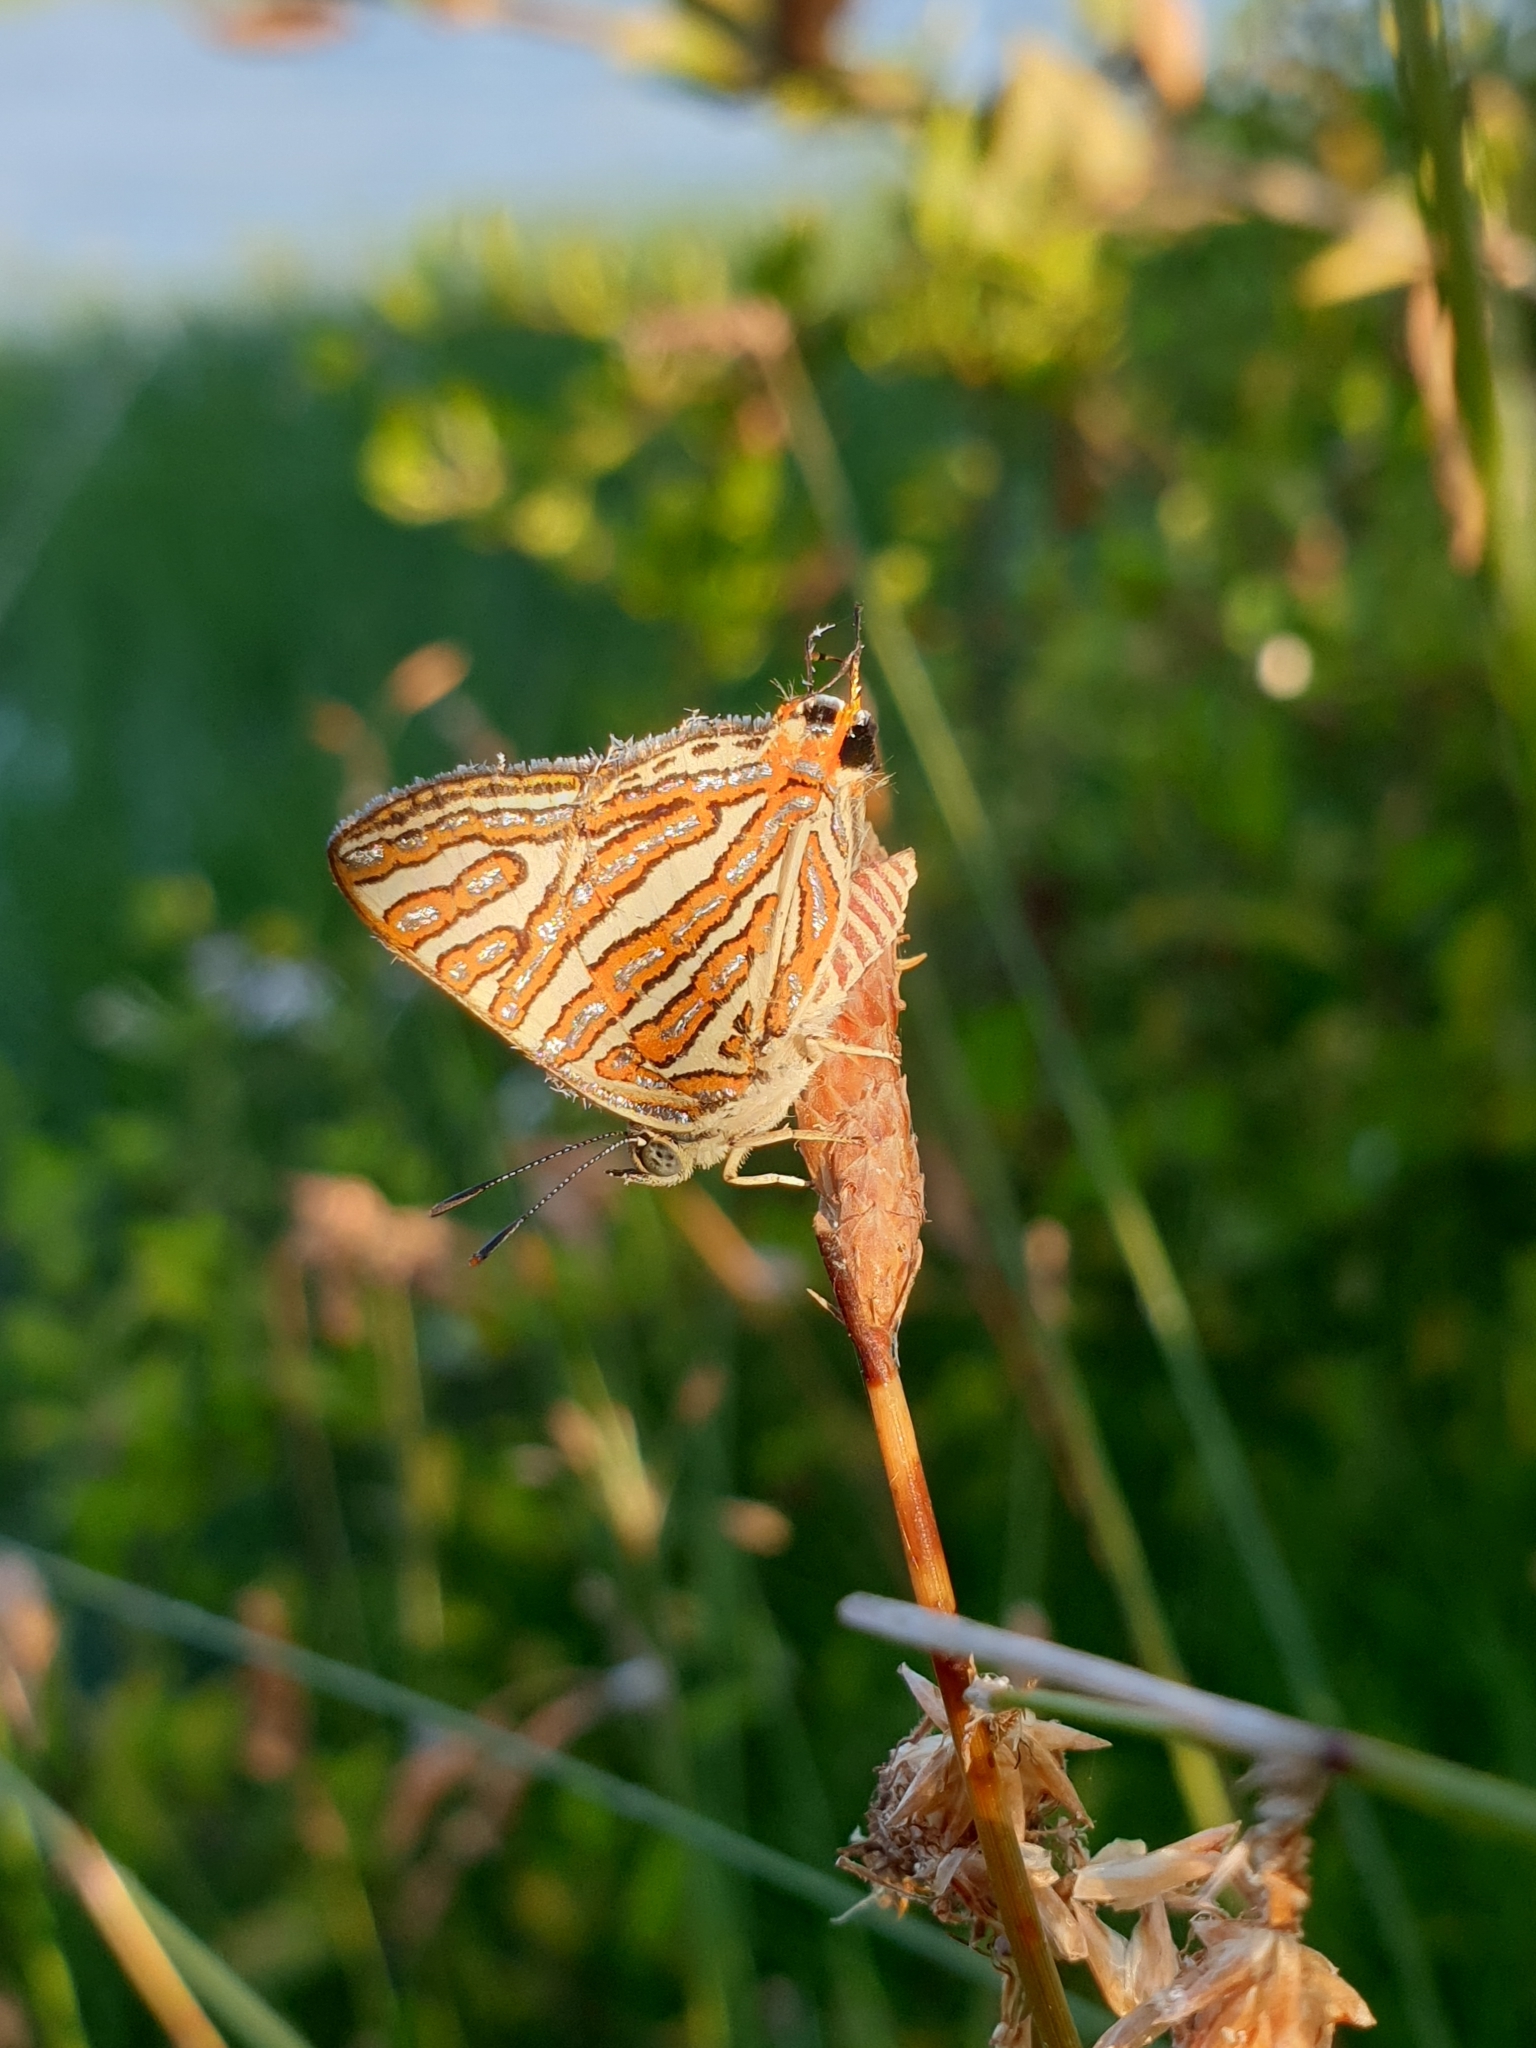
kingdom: Animalia
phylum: Arthropoda
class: Insecta
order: Lepidoptera
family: Lycaenidae
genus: Cigaritis
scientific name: Cigaritis vulcanus
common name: Common silverline
